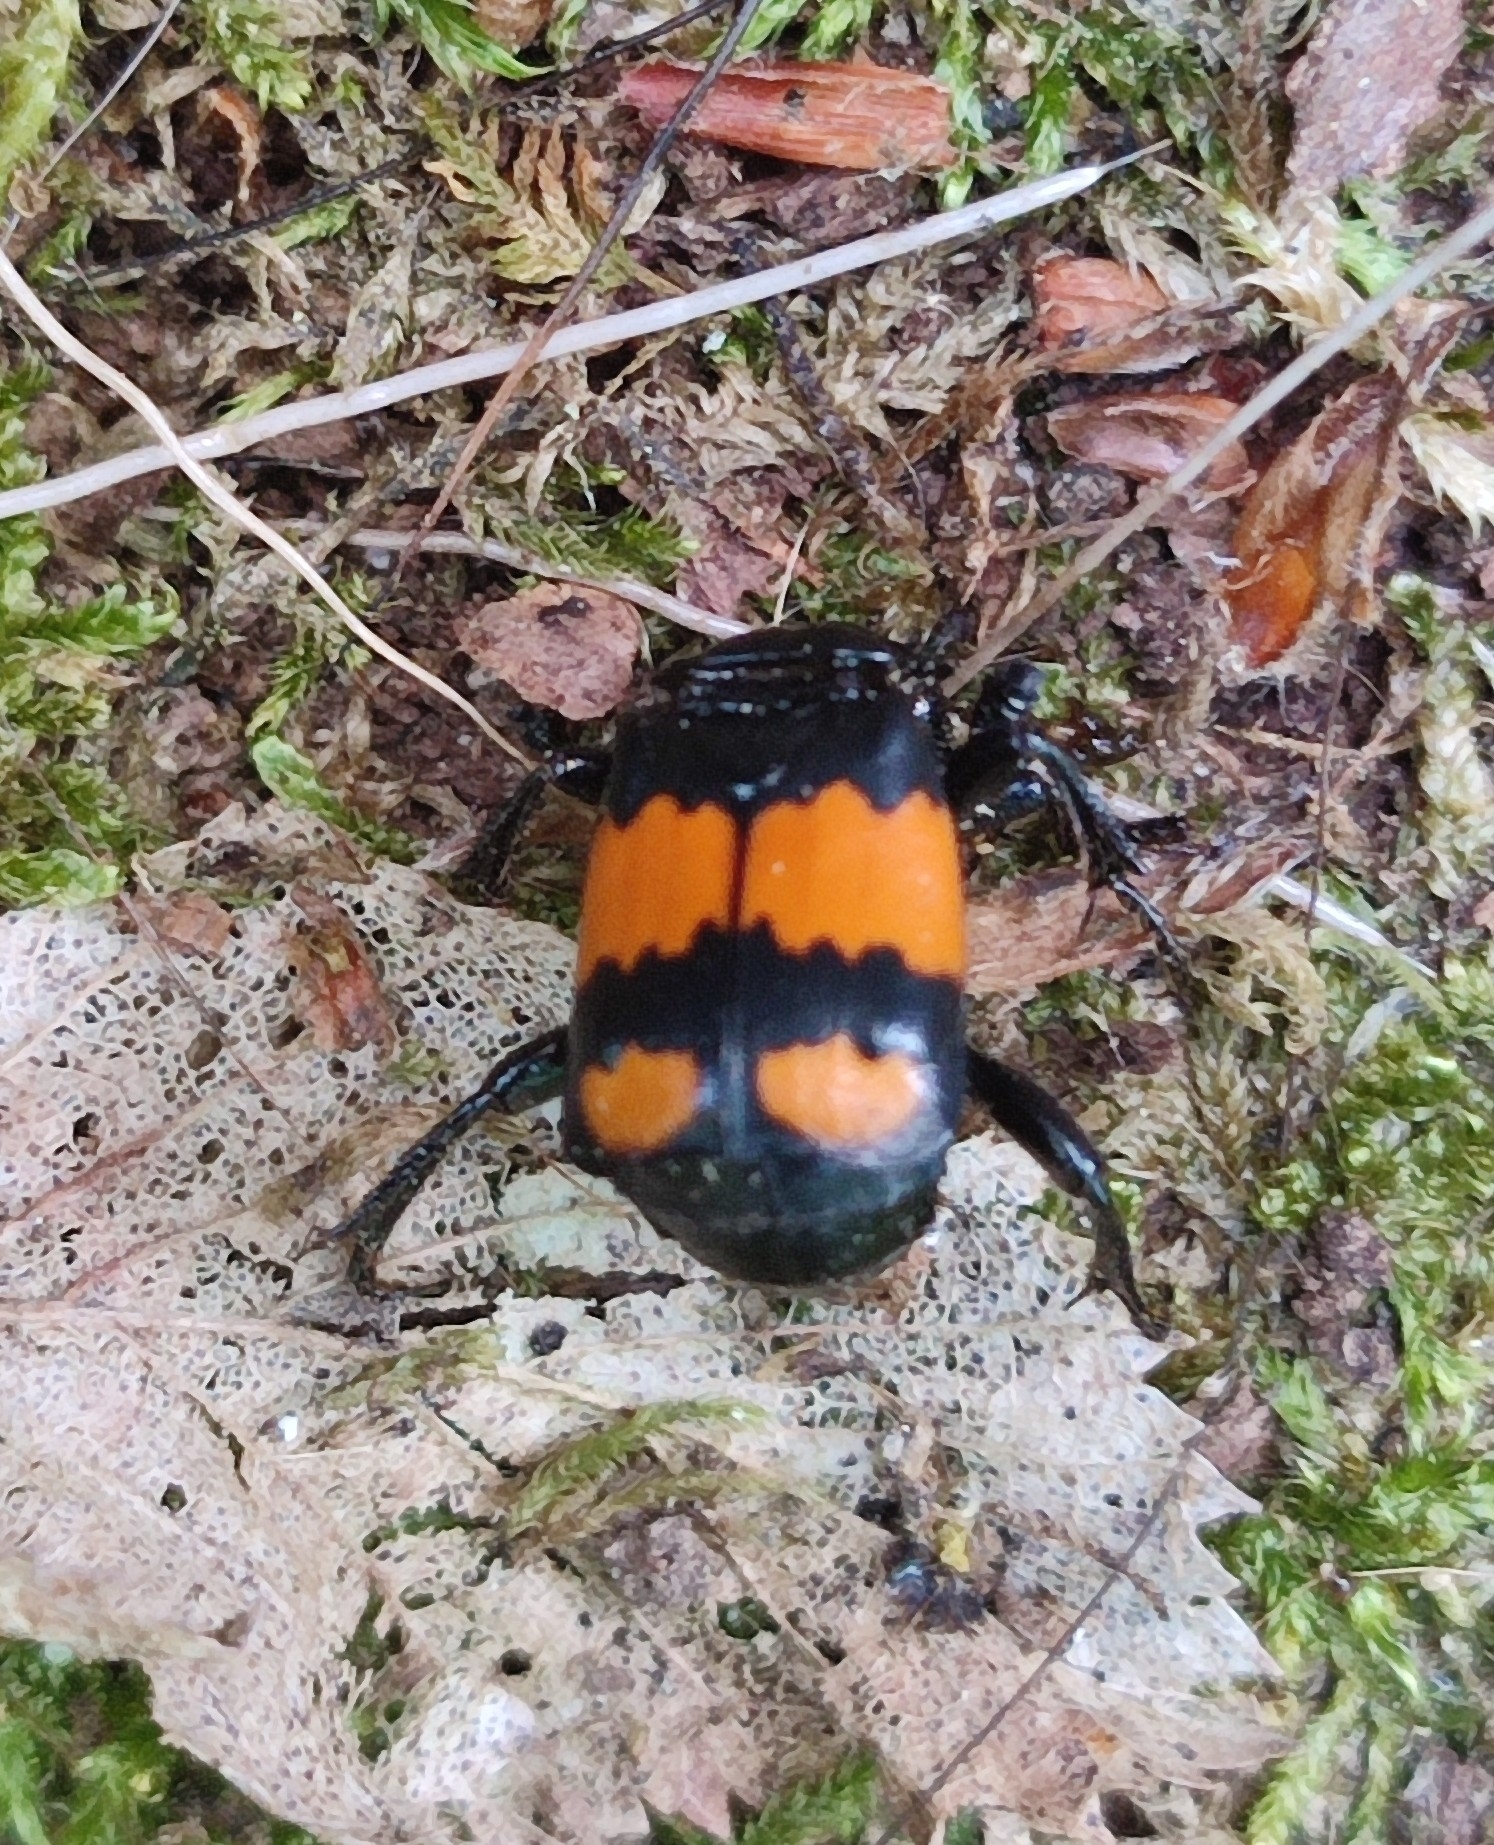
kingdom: Animalia
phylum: Arthropoda
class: Insecta
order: Coleoptera
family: Staphylinidae
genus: Nicrophorus
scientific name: Nicrophorus vespilloides
